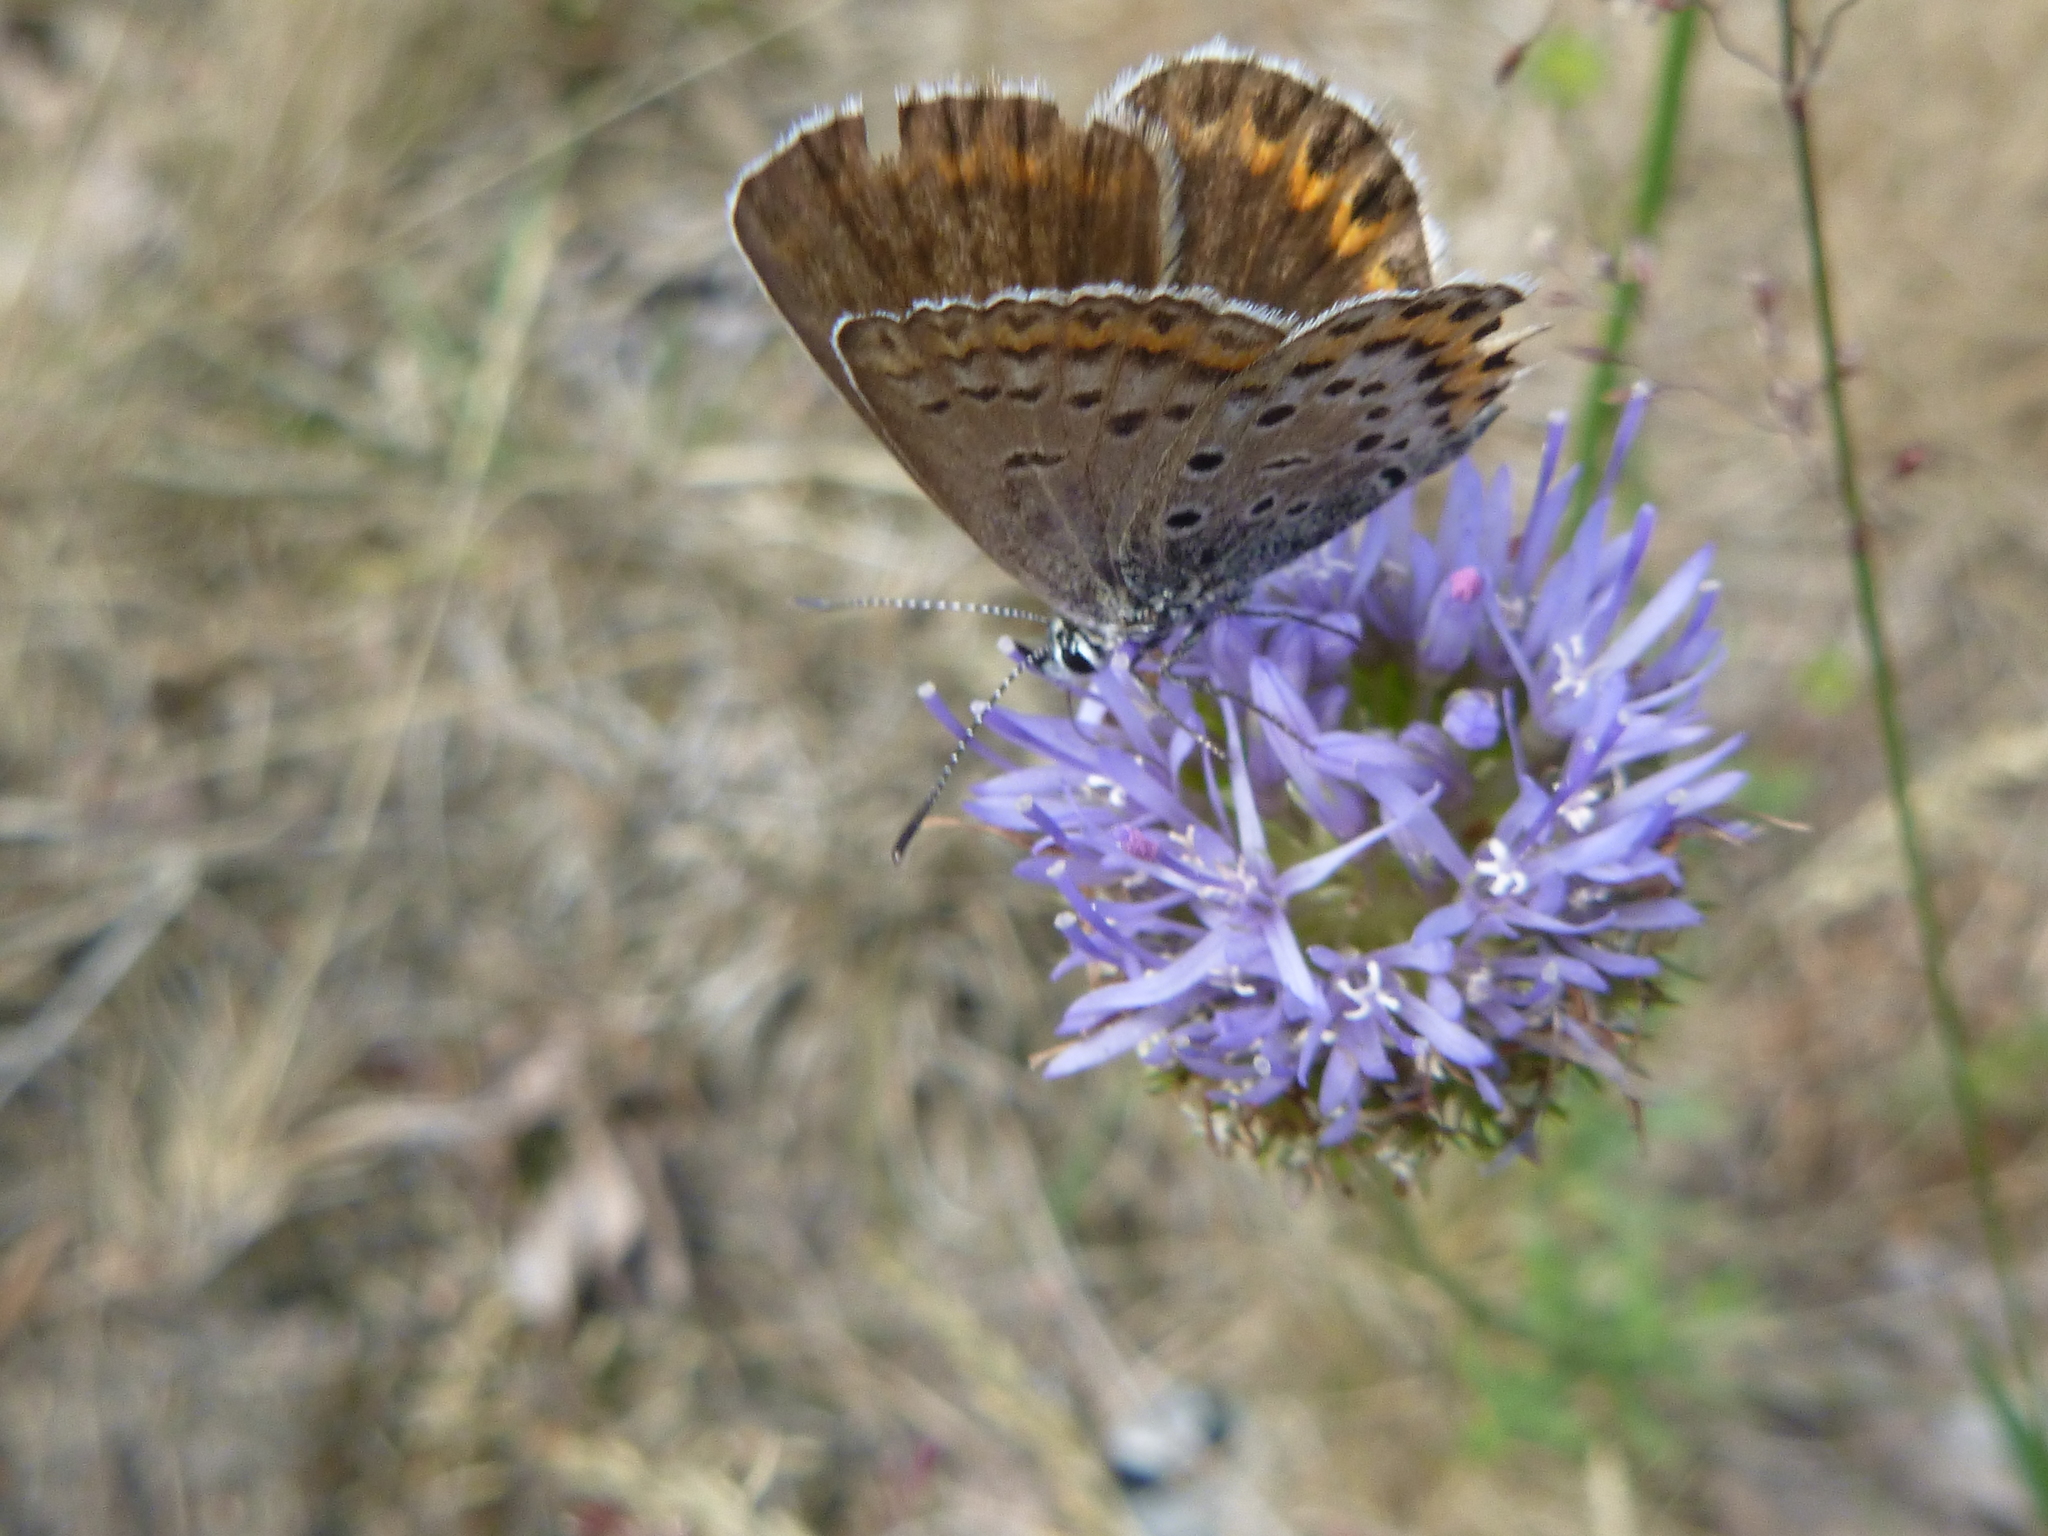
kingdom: Animalia
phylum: Arthropoda
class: Insecta
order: Lepidoptera
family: Lycaenidae
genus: Plebejus
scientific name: Plebejus argus
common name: Silver-studded blue
